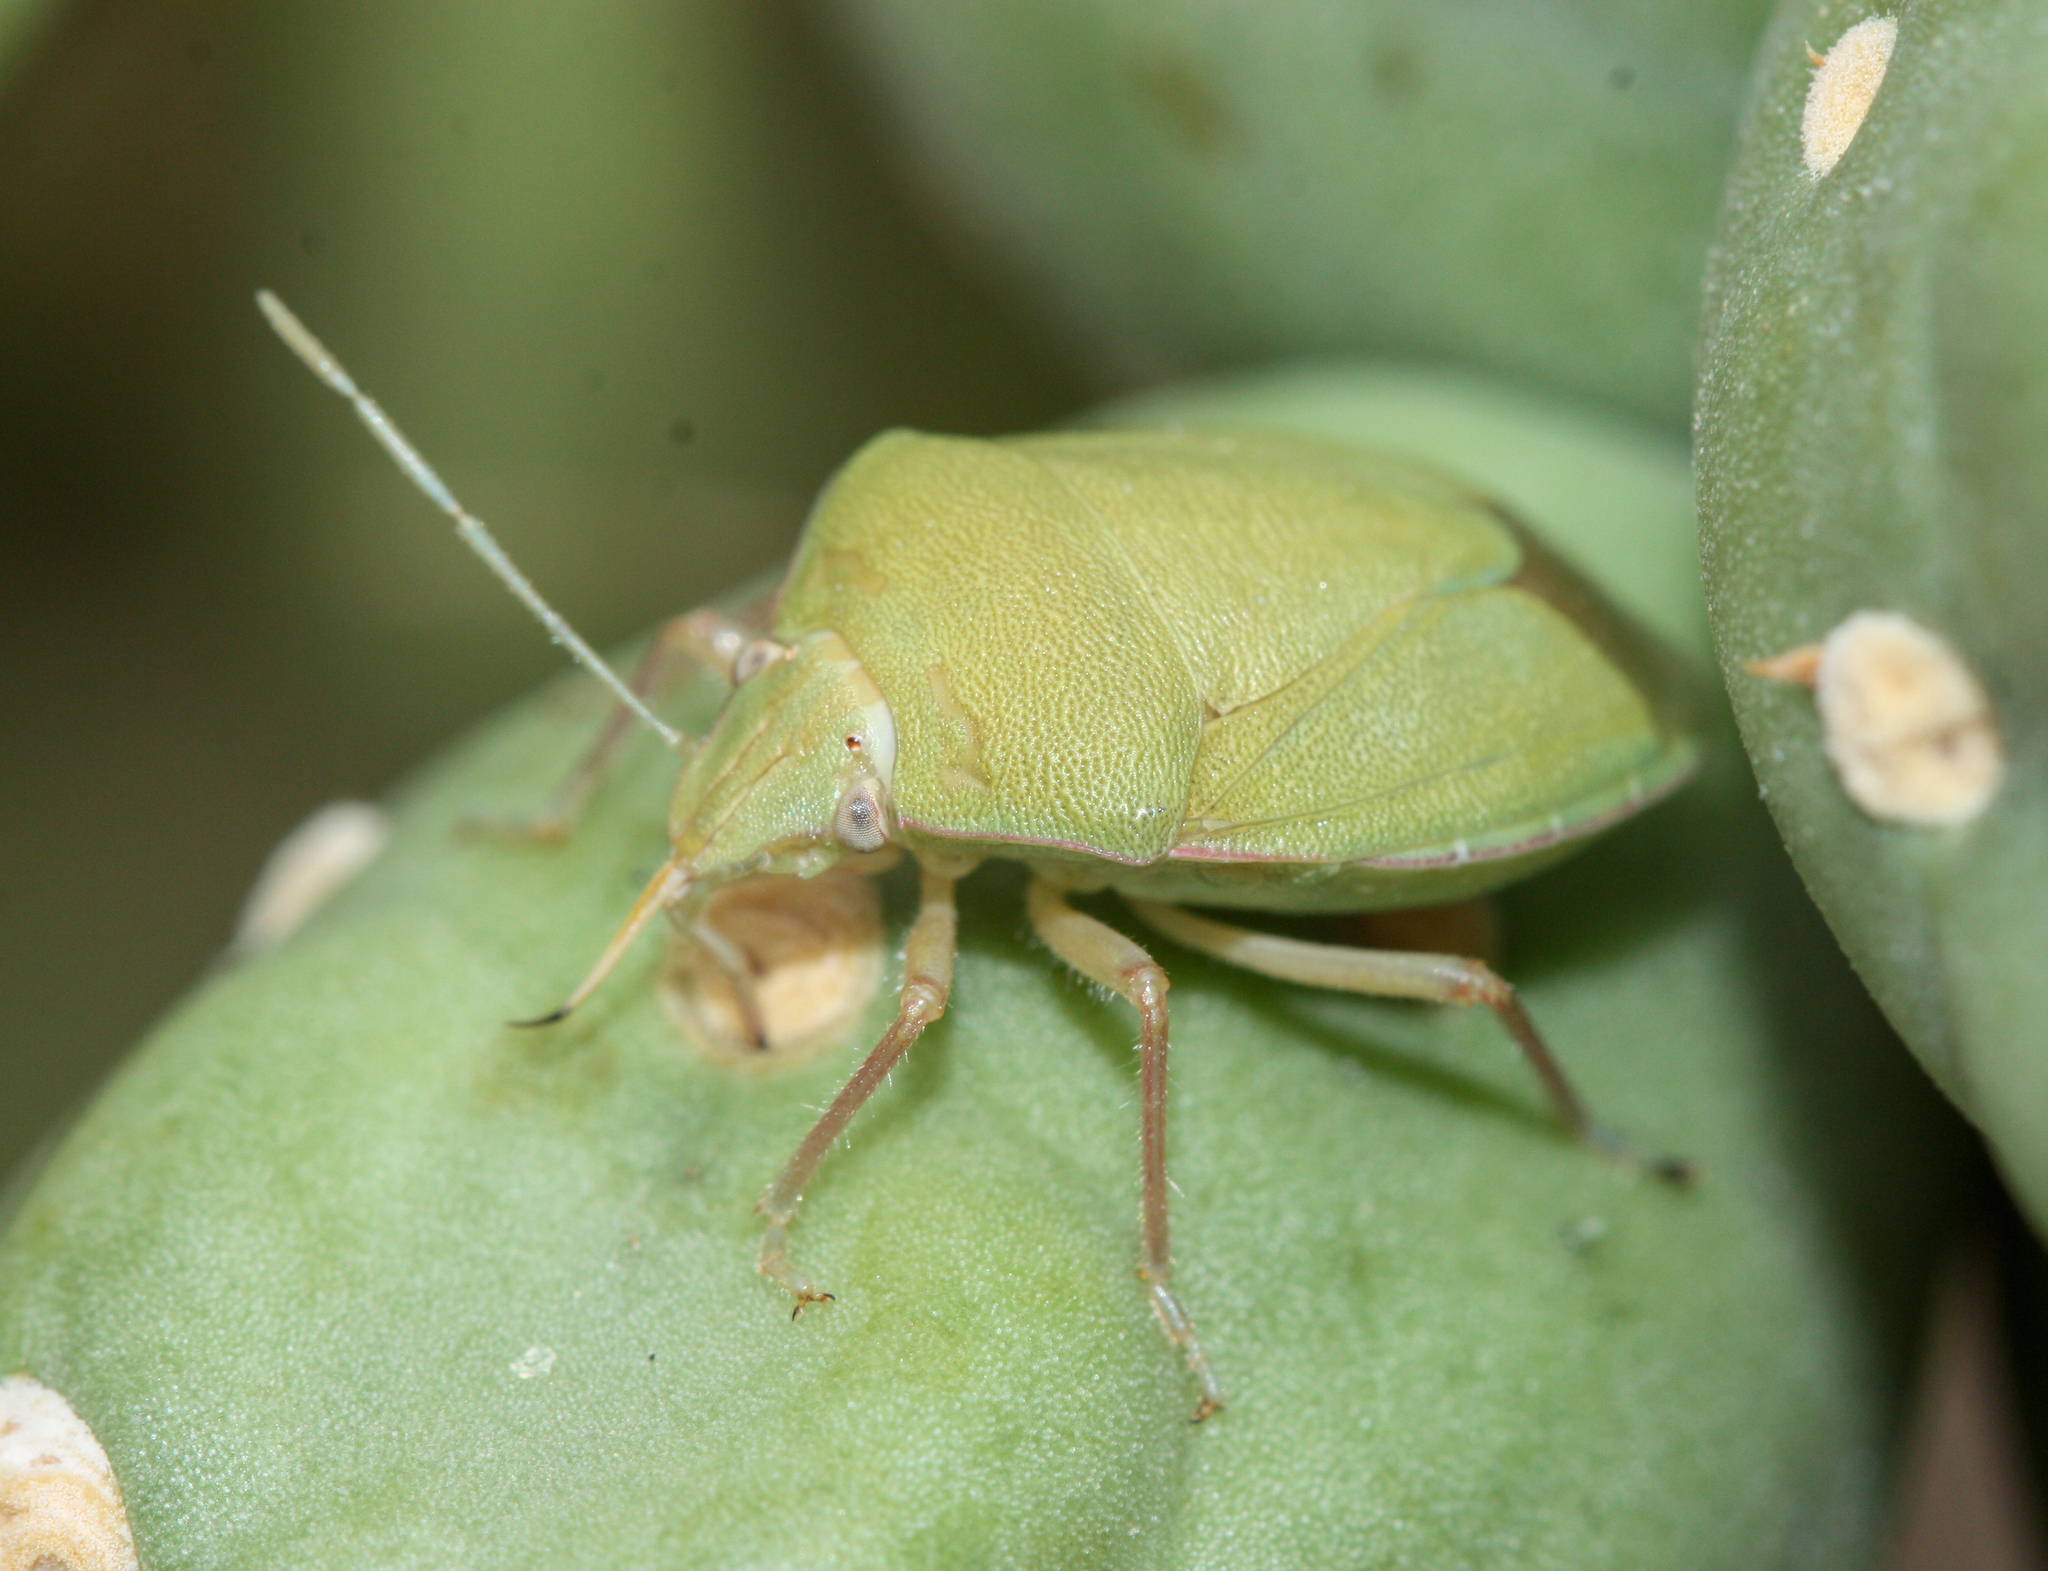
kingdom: Animalia
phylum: Arthropoda
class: Insecta
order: Hemiptera
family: Pentatomidae
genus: Chlorochroa
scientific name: Chlorochroa opuntiae
